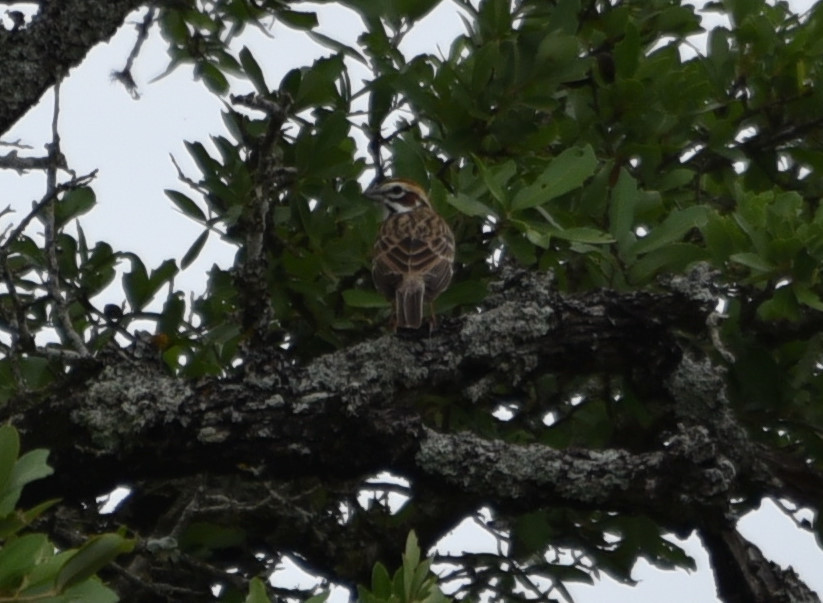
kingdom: Animalia
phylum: Chordata
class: Aves
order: Passeriformes
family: Passerellidae
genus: Chondestes
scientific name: Chondestes grammacus
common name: Lark sparrow
